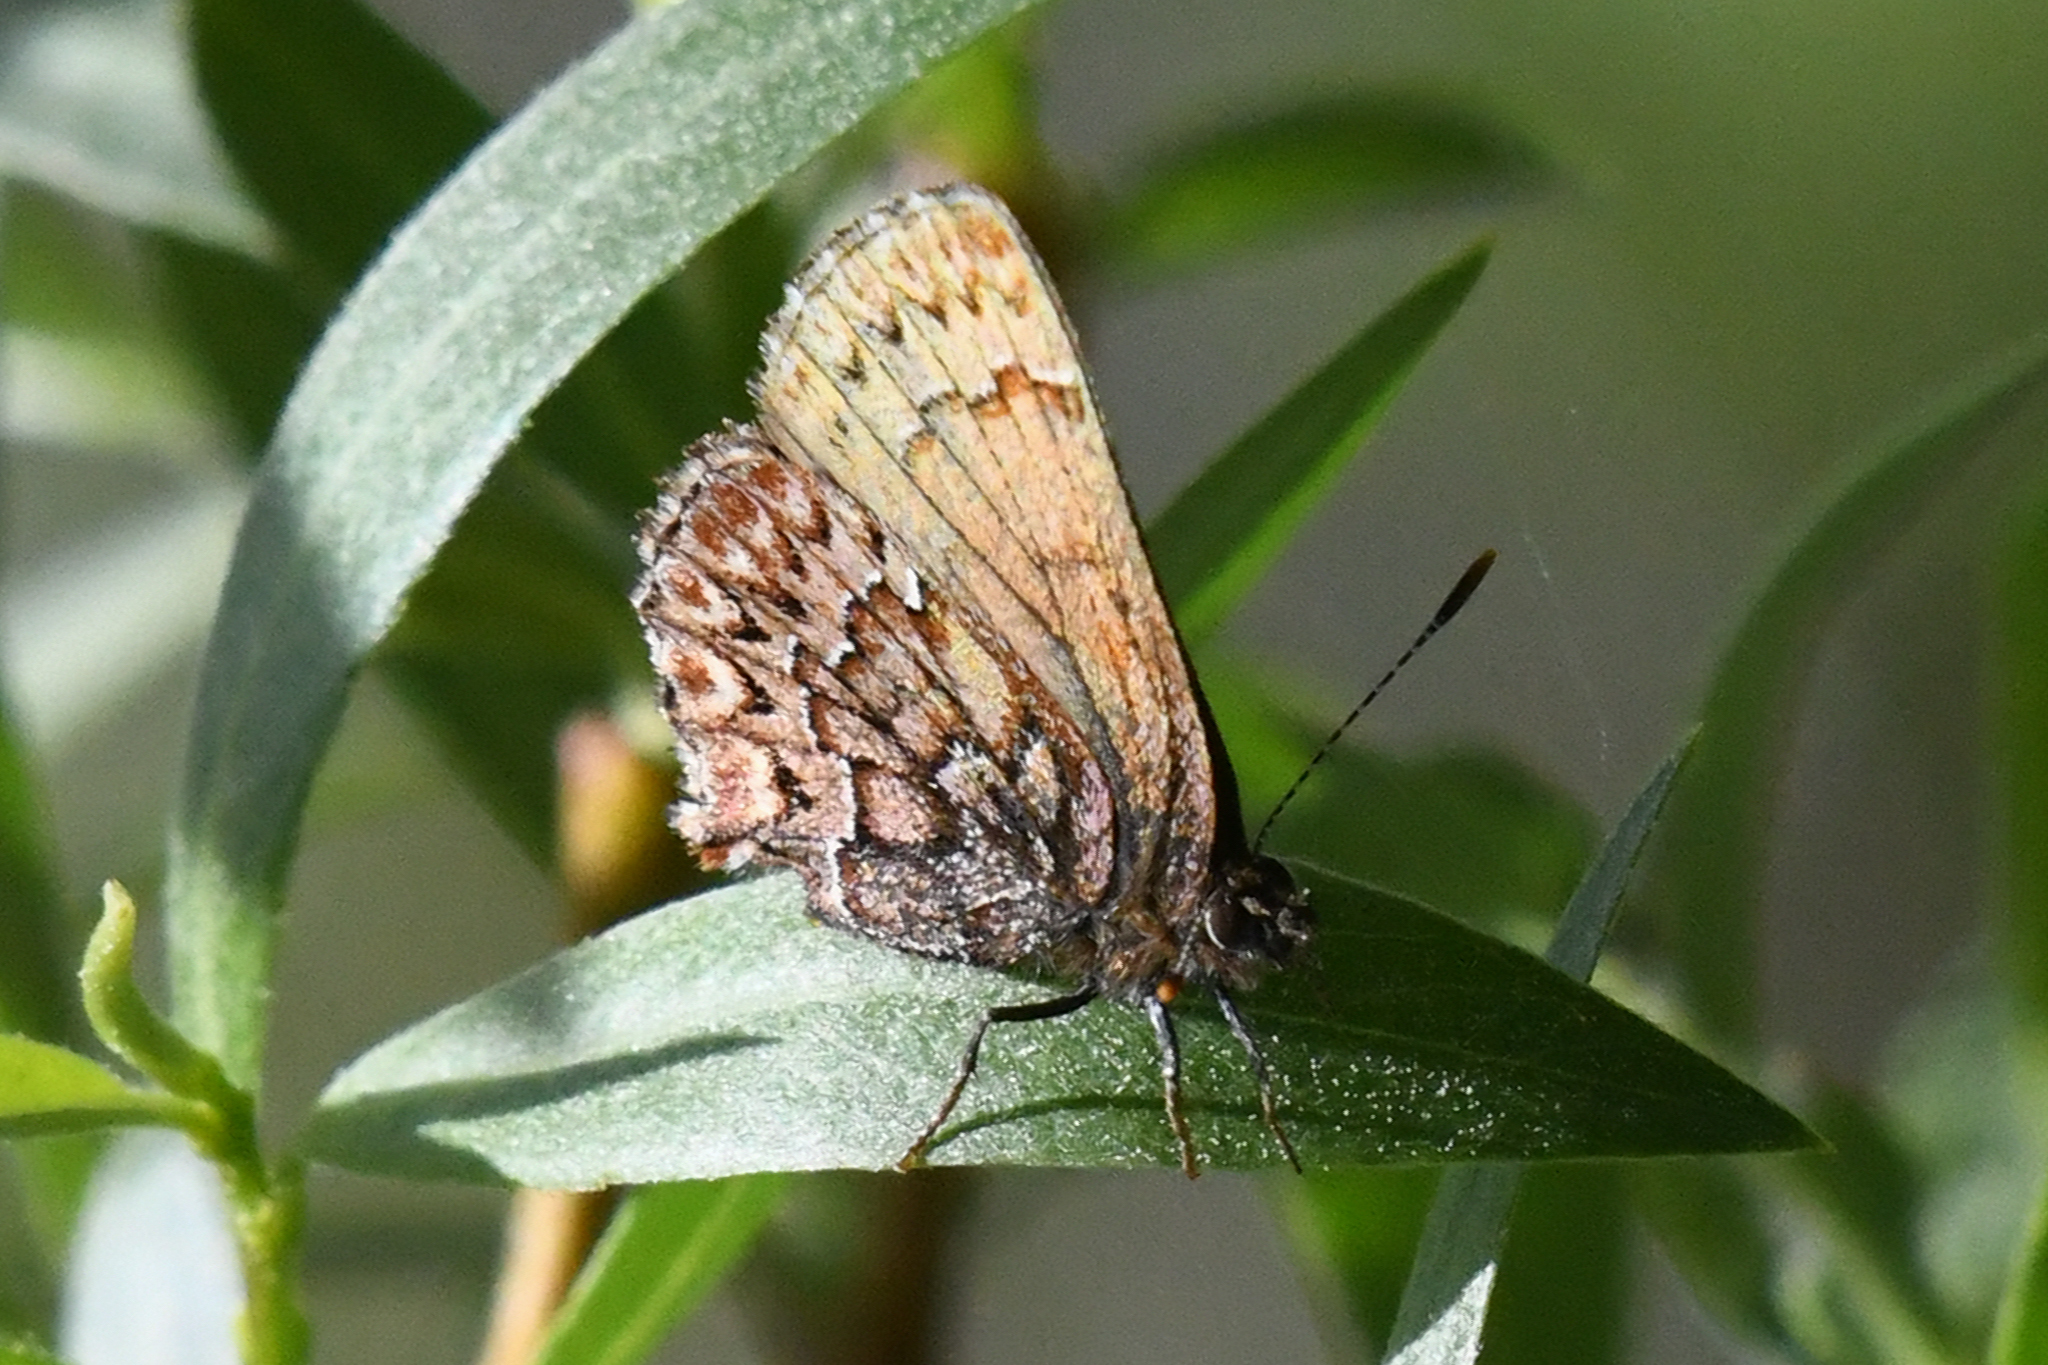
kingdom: Animalia
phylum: Arthropoda
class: Insecta
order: Lepidoptera
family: Lycaenidae
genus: Incisalia
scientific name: Incisalia eryphon
